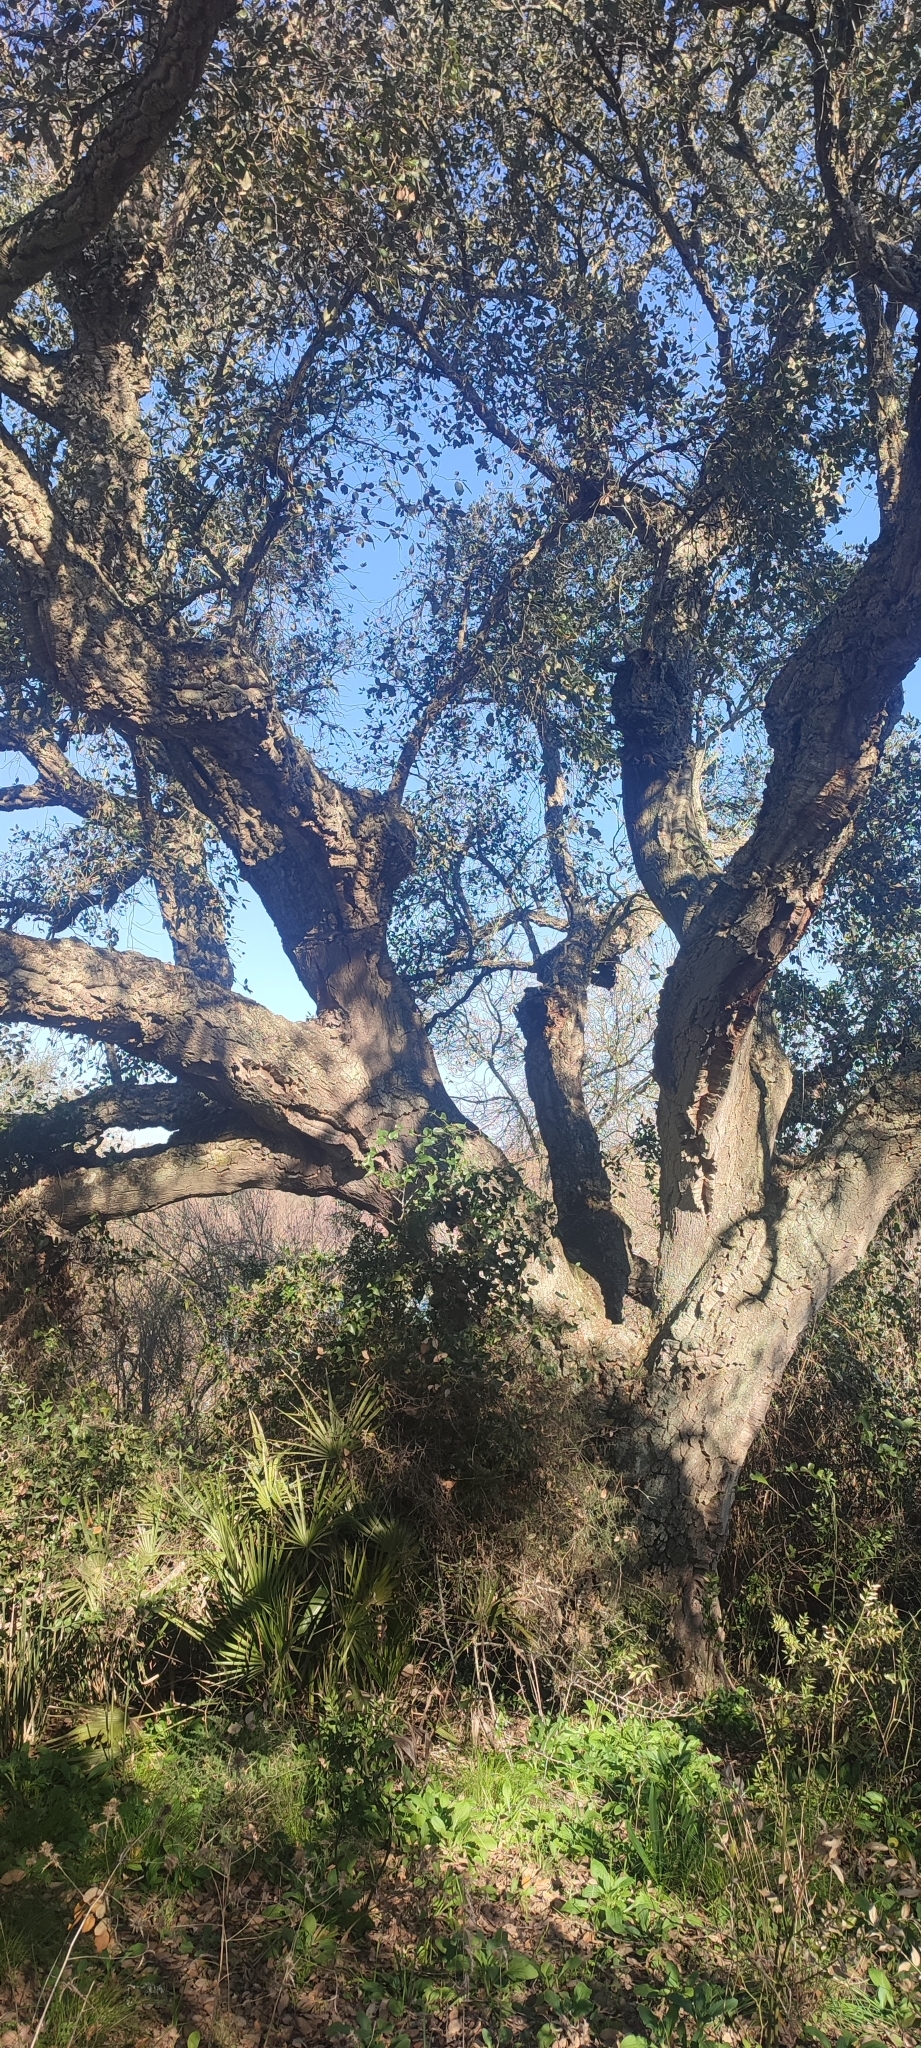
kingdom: Plantae
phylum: Tracheophyta
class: Magnoliopsida
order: Fagales
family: Fagaceae
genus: Quercus
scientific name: Quercus suber
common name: Cork oak
